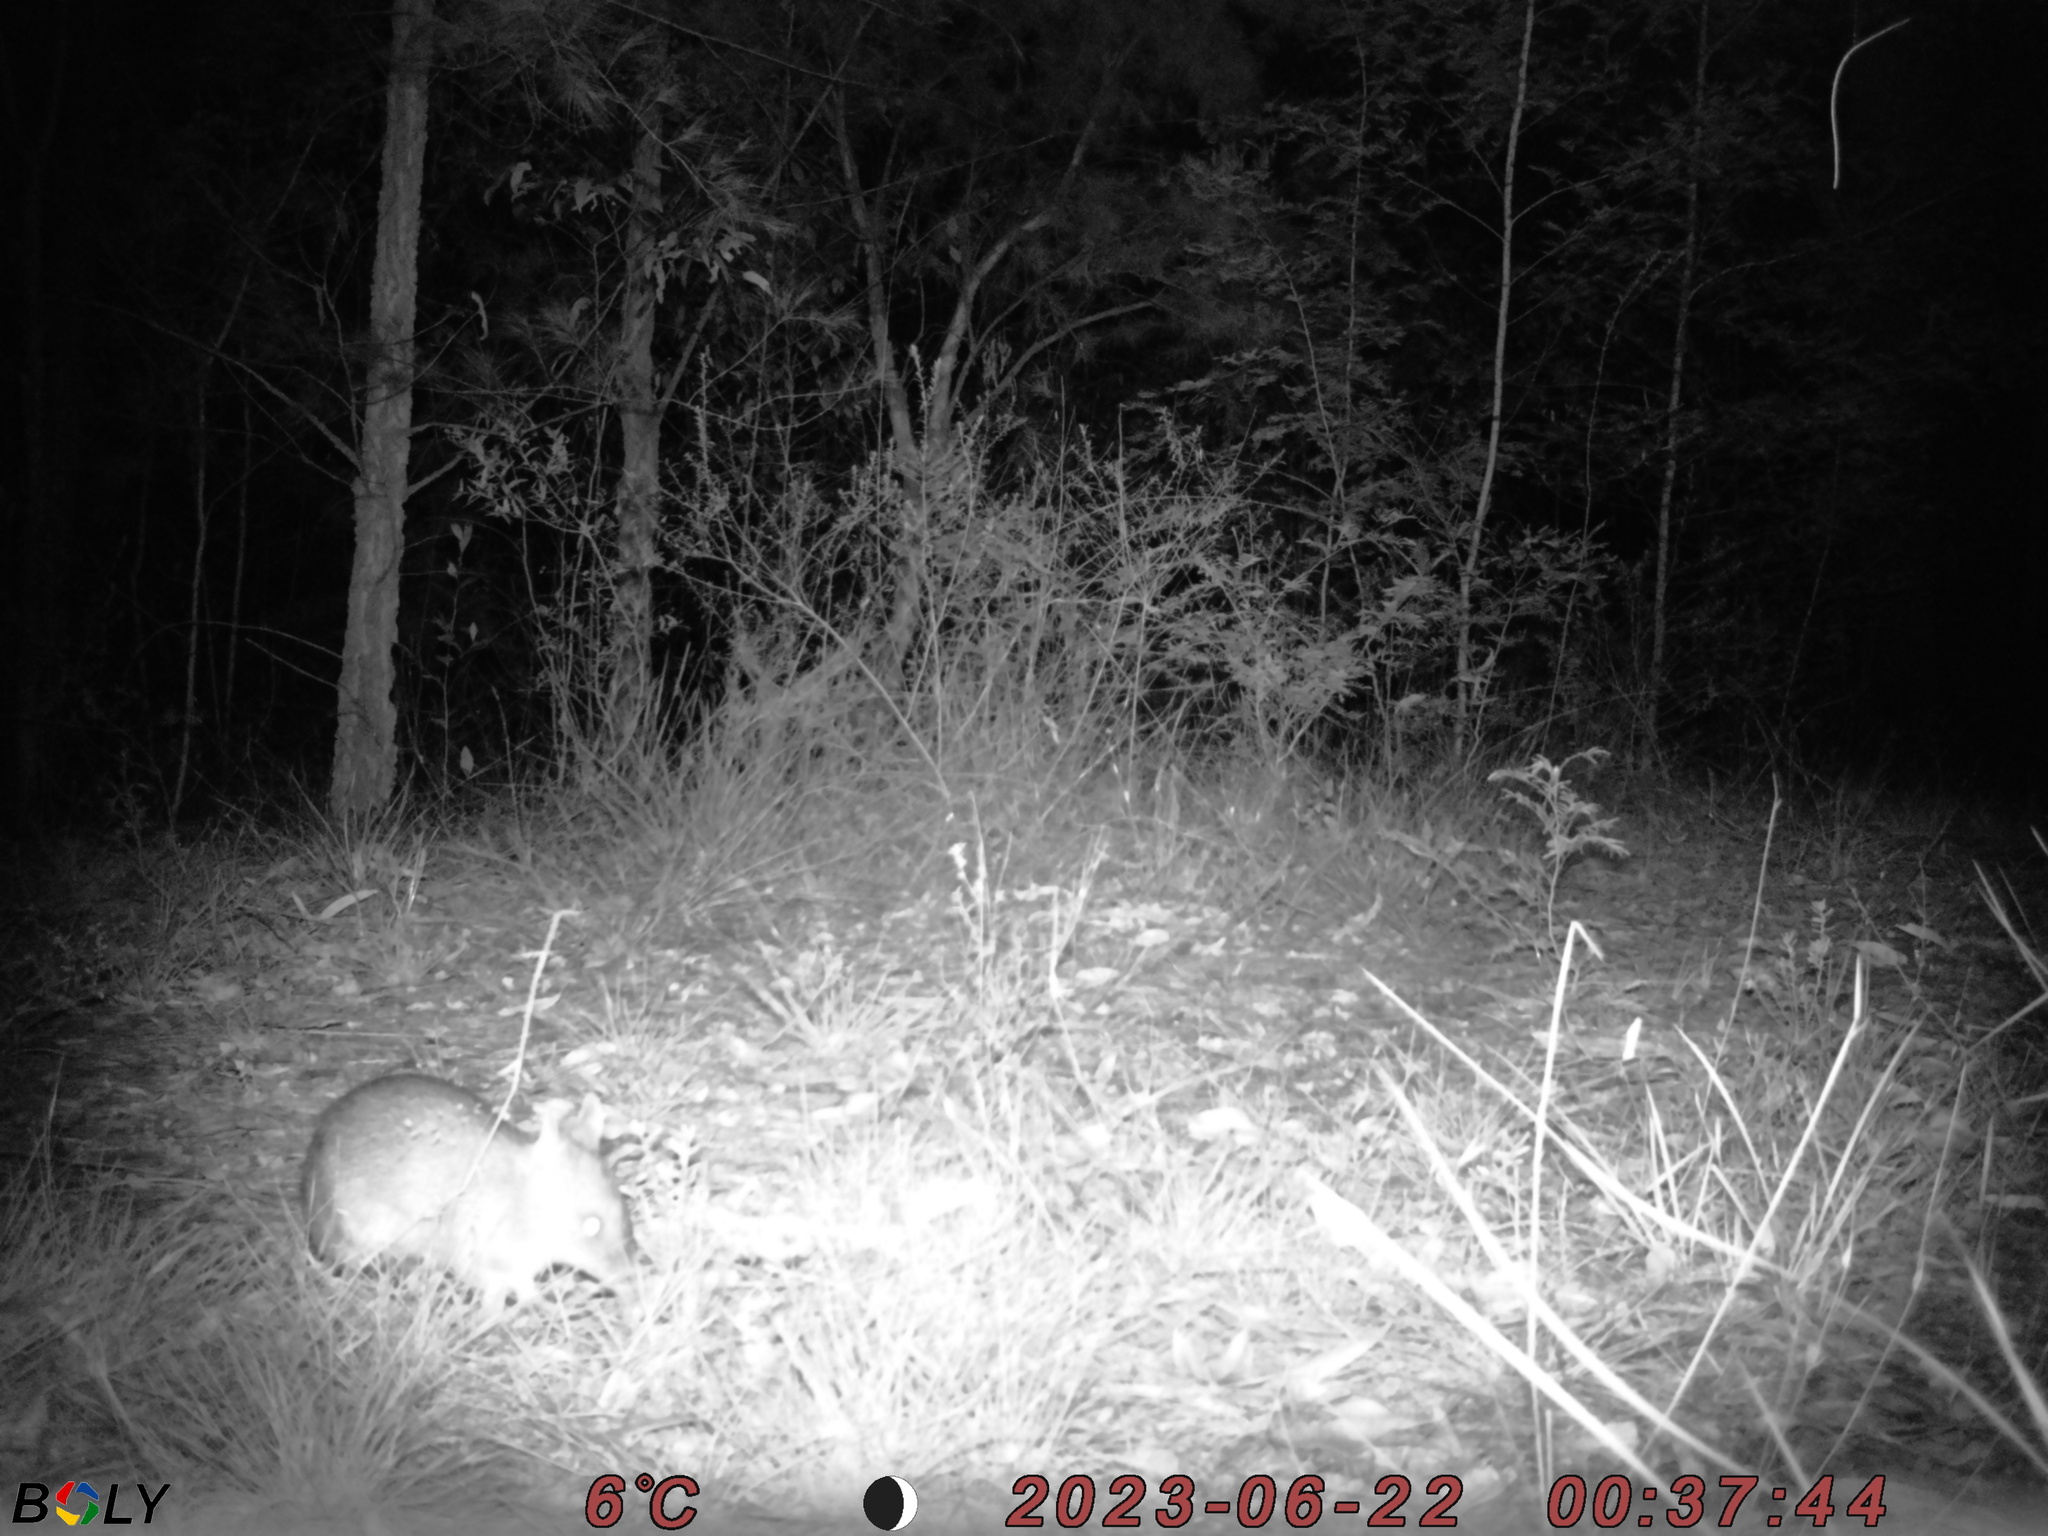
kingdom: Animalia
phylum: Chordata
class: Mammalia
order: Peramelemorphia
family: Peramelidae
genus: Perameles
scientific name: Perameles nasuta
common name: Long-nosed bandicoot
